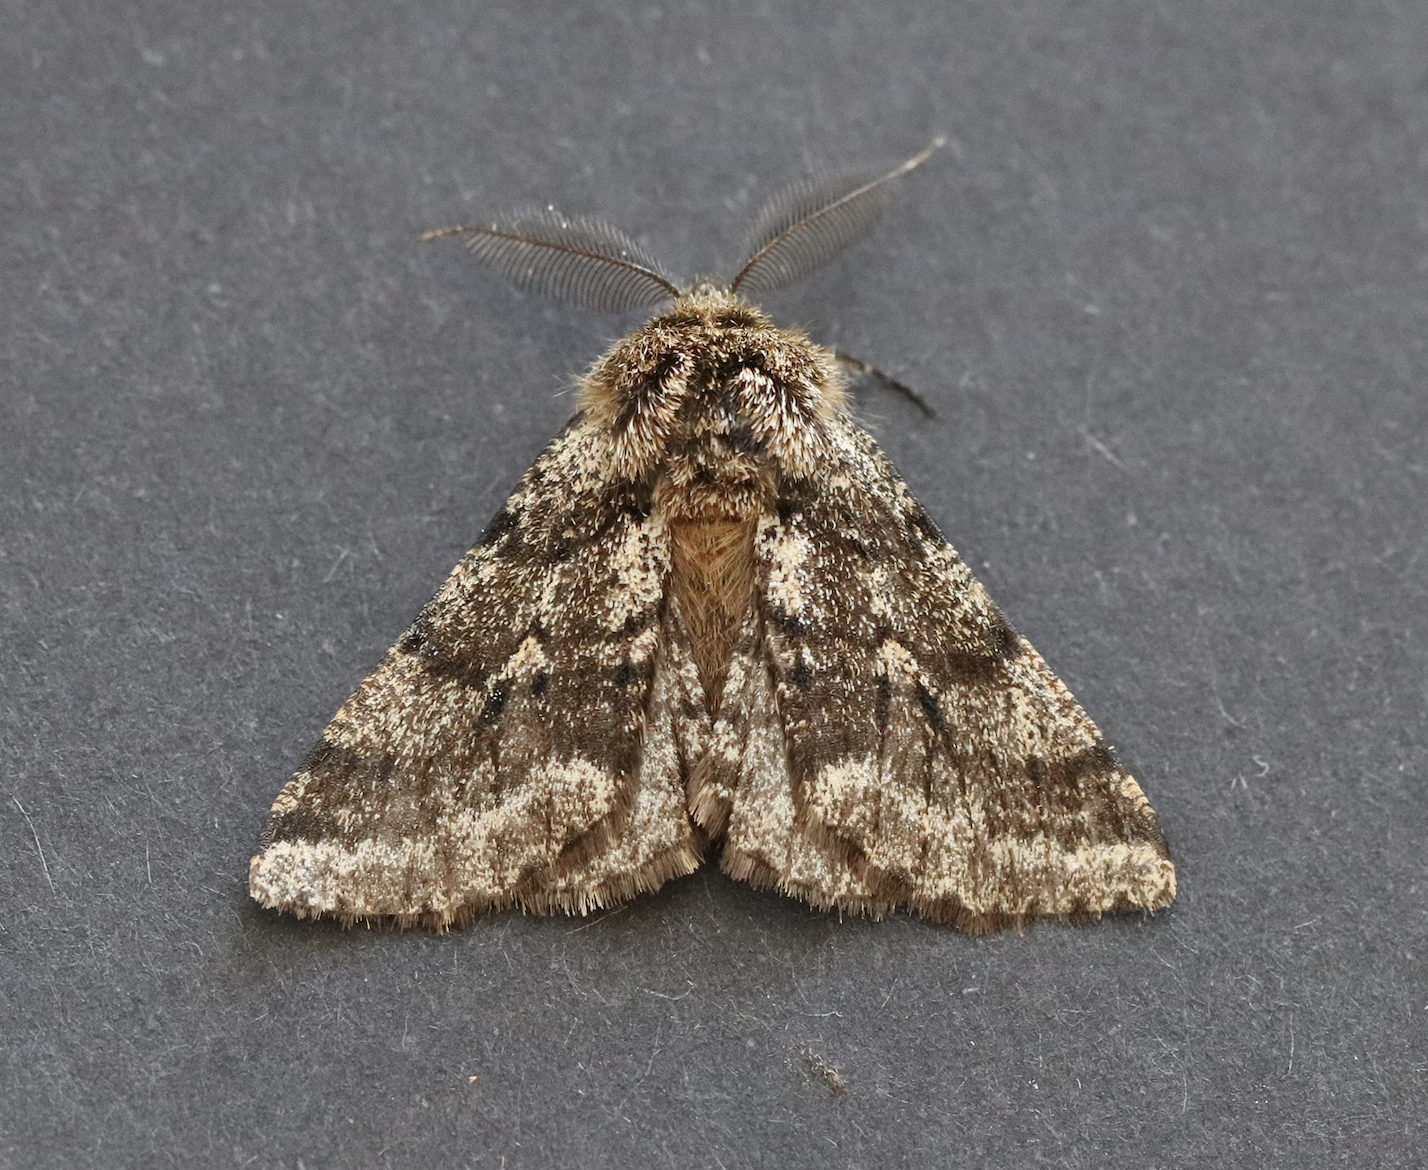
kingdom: Animalia
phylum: Arthropoda
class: Insecta
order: Lepidoptera
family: Geometridae
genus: Lycia
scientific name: Lycia hirtaria
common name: Brindled beauty
